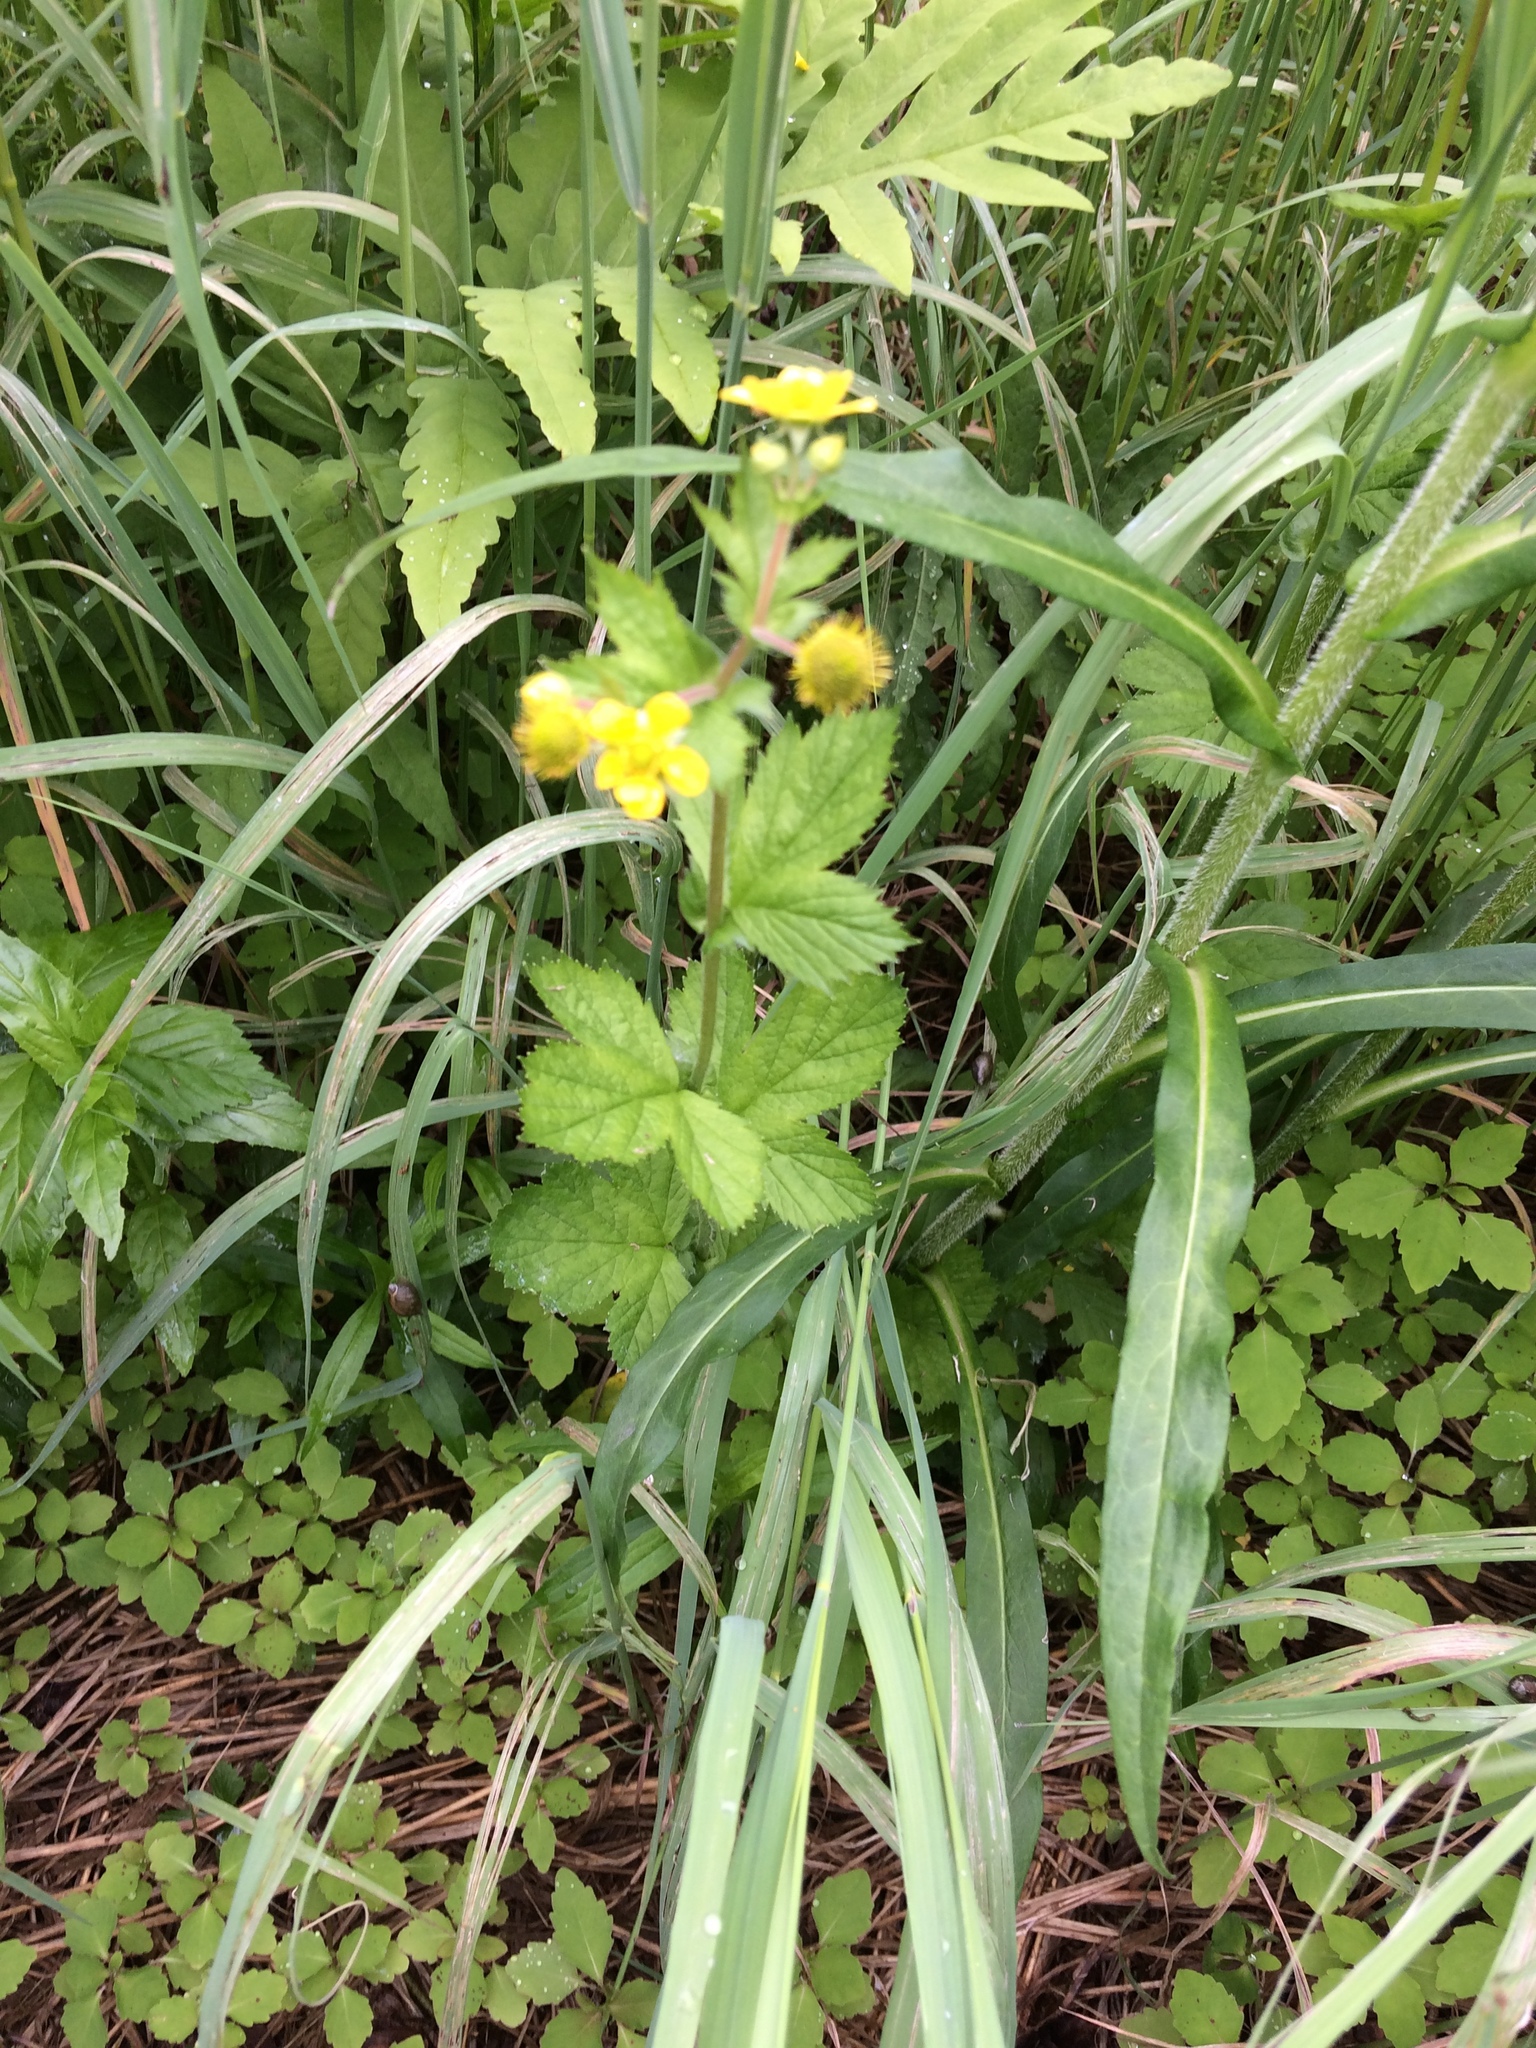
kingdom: Plantae
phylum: Tracheophyta
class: Magnoliopsida
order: Rosales
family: Rosaceae
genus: Potentilla
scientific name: Potentilla norvegica
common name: Ternate-leaved cinquefoil
